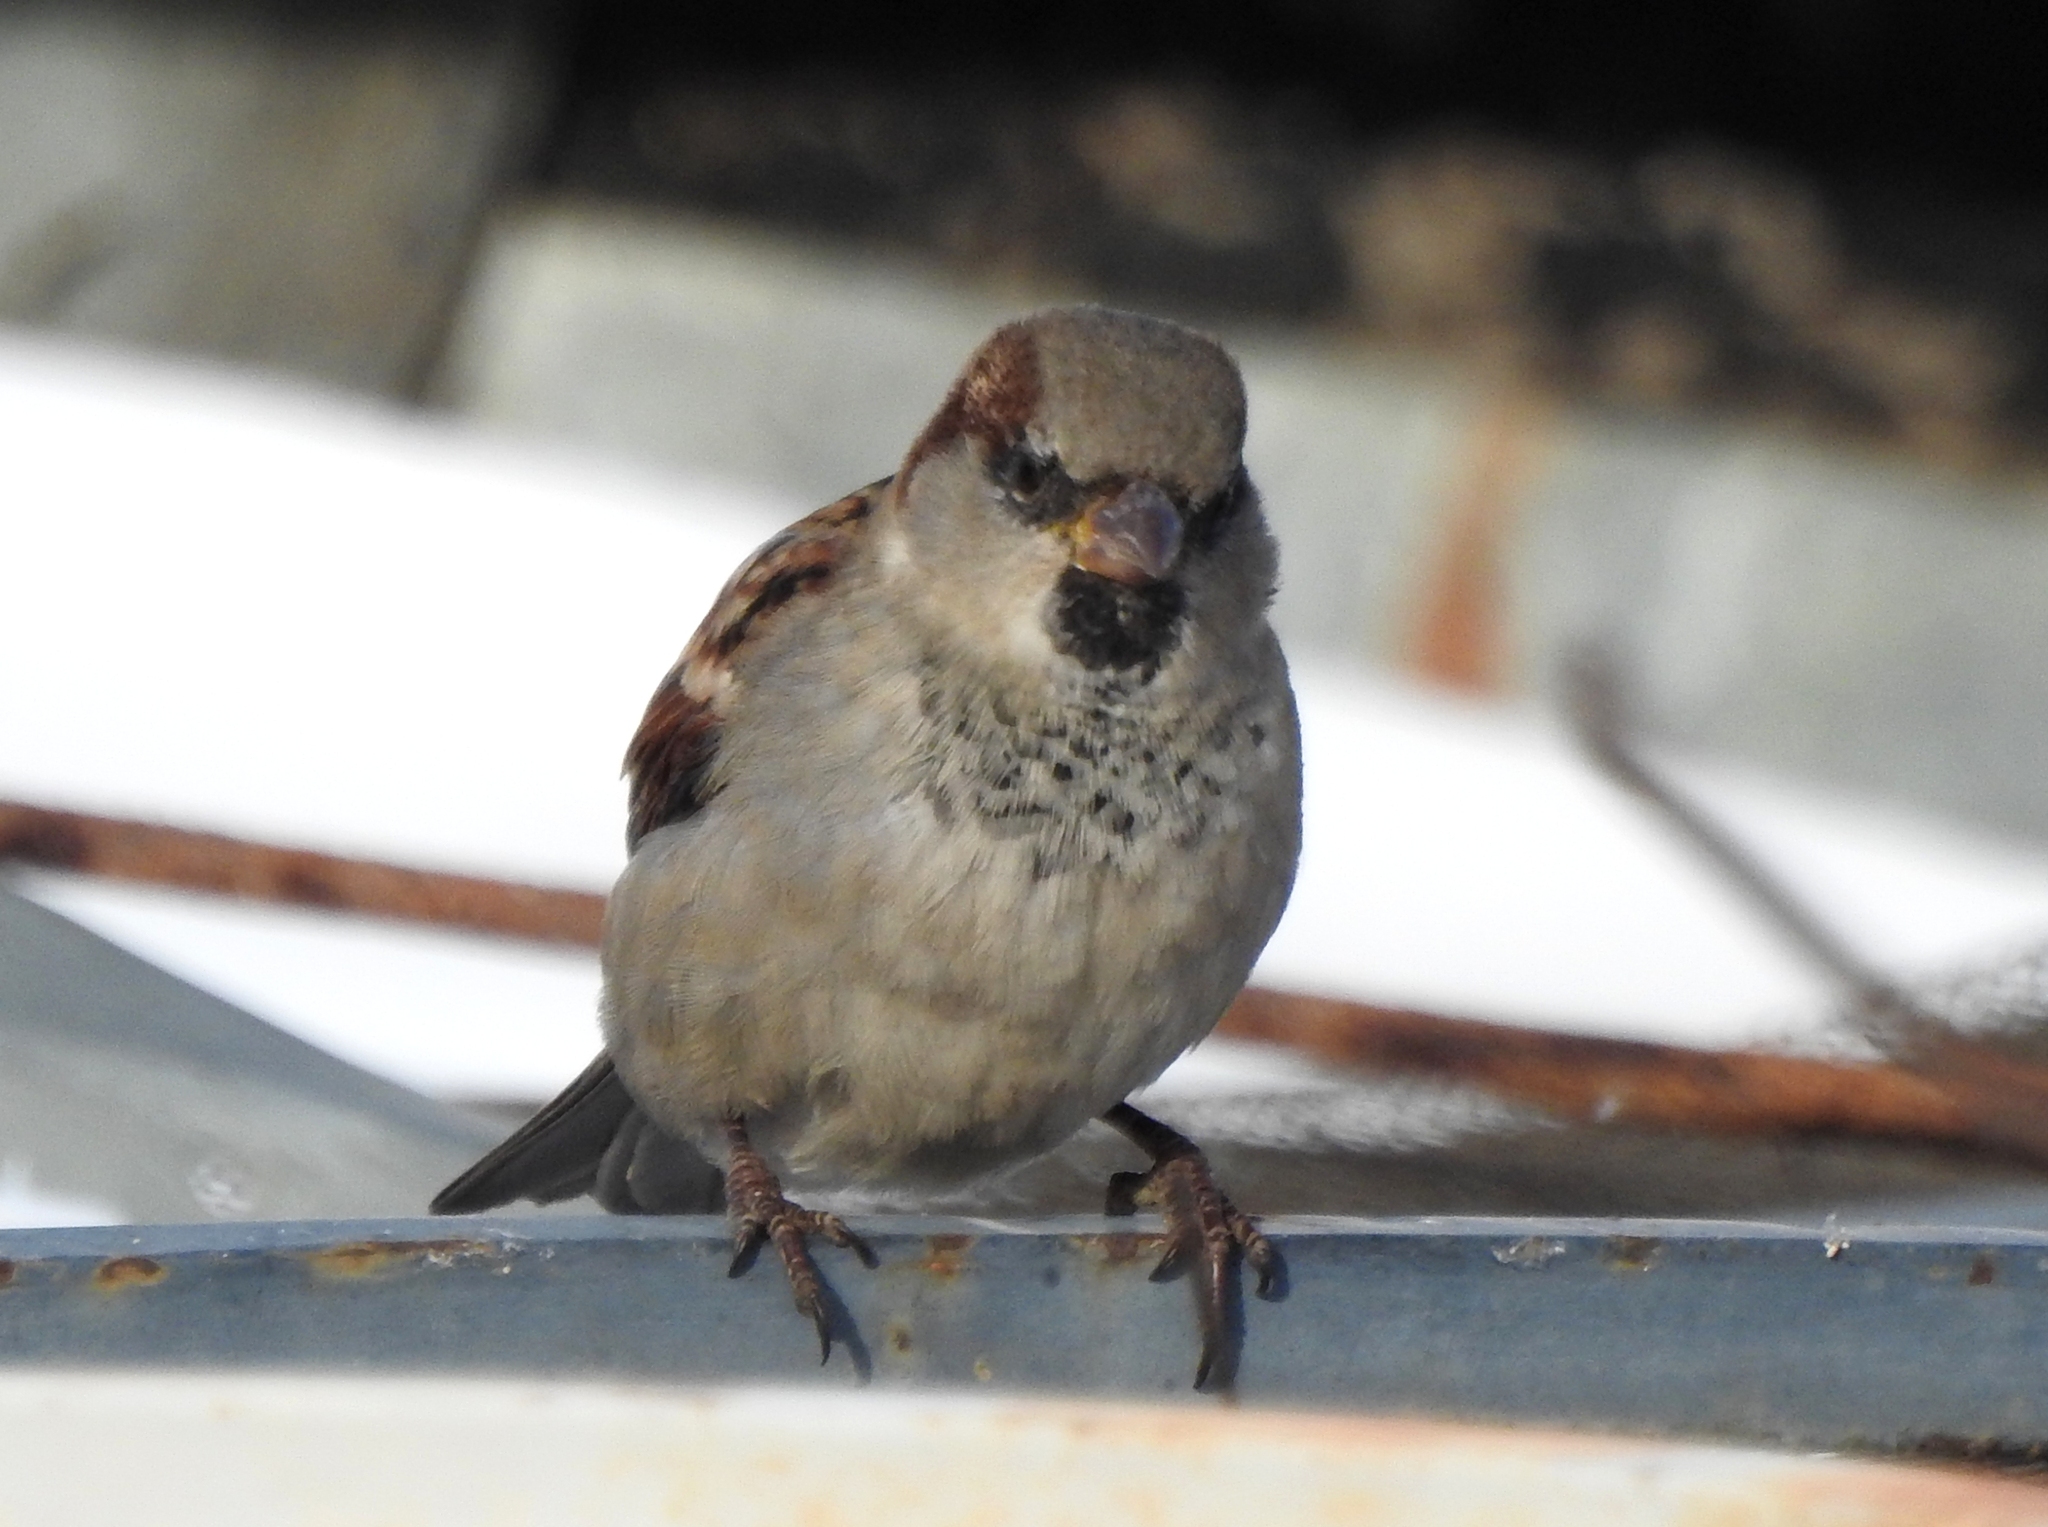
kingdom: Animalia
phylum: Chordata
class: Aves
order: Passeriformes
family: Passeridae
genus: Passer
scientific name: Passer domesticus
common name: House sparrow
